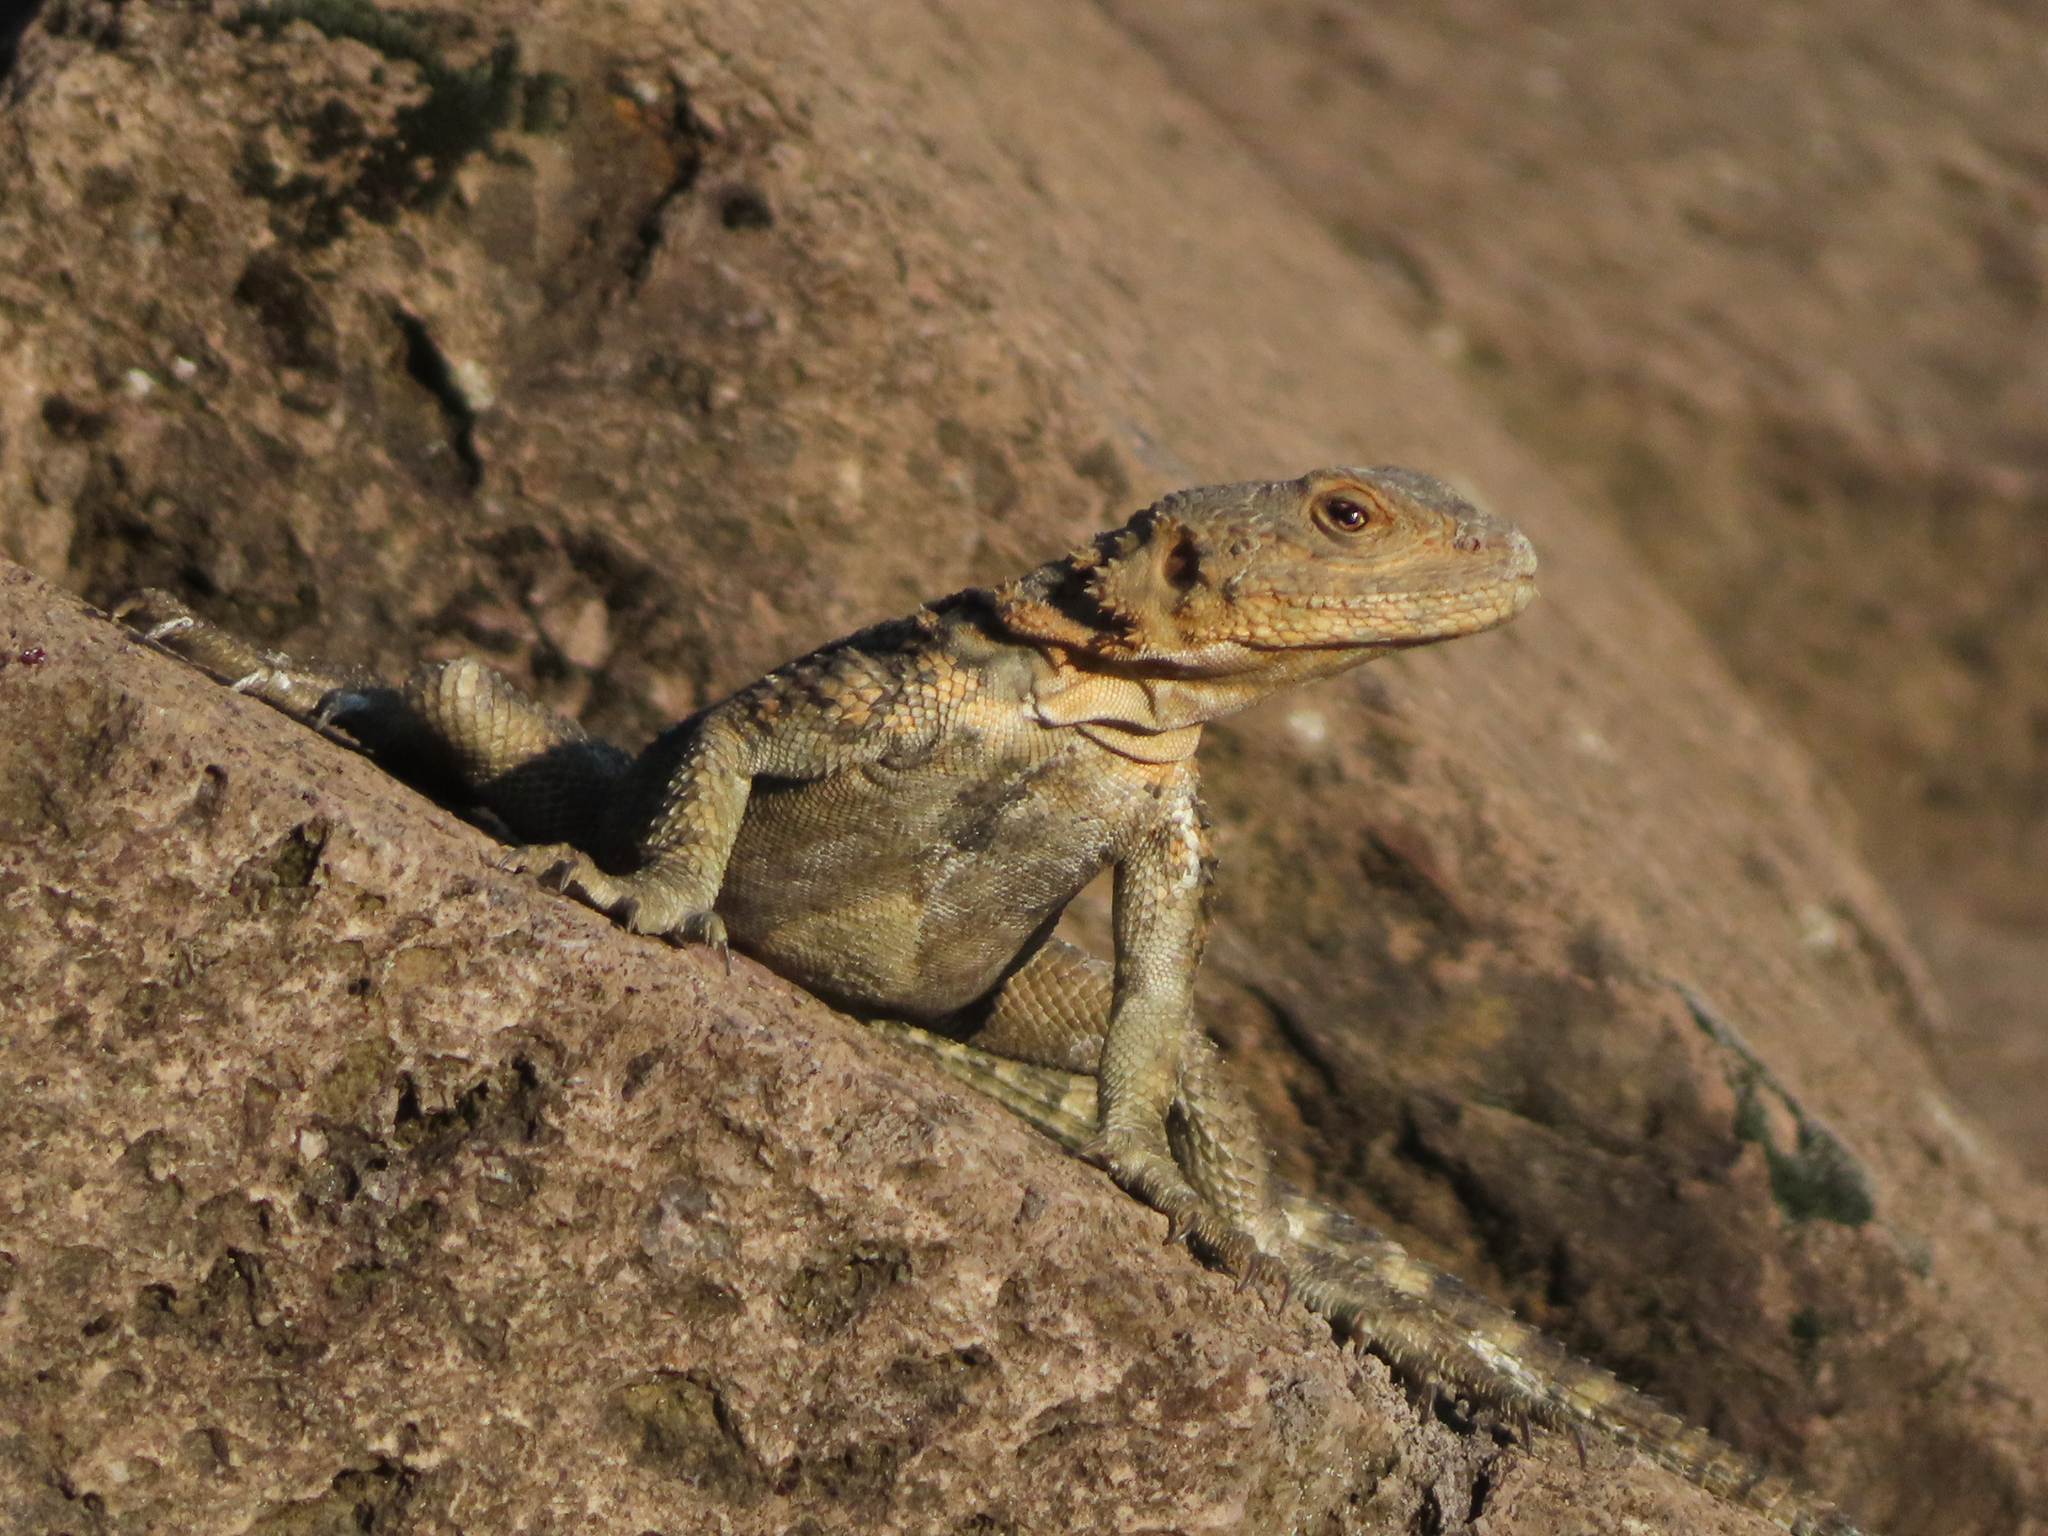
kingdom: Animalia
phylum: Chordata
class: Squamata
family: Agamidae
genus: Paralaudakia
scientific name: Paralaudakia caucasia
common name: Caucasian agama
